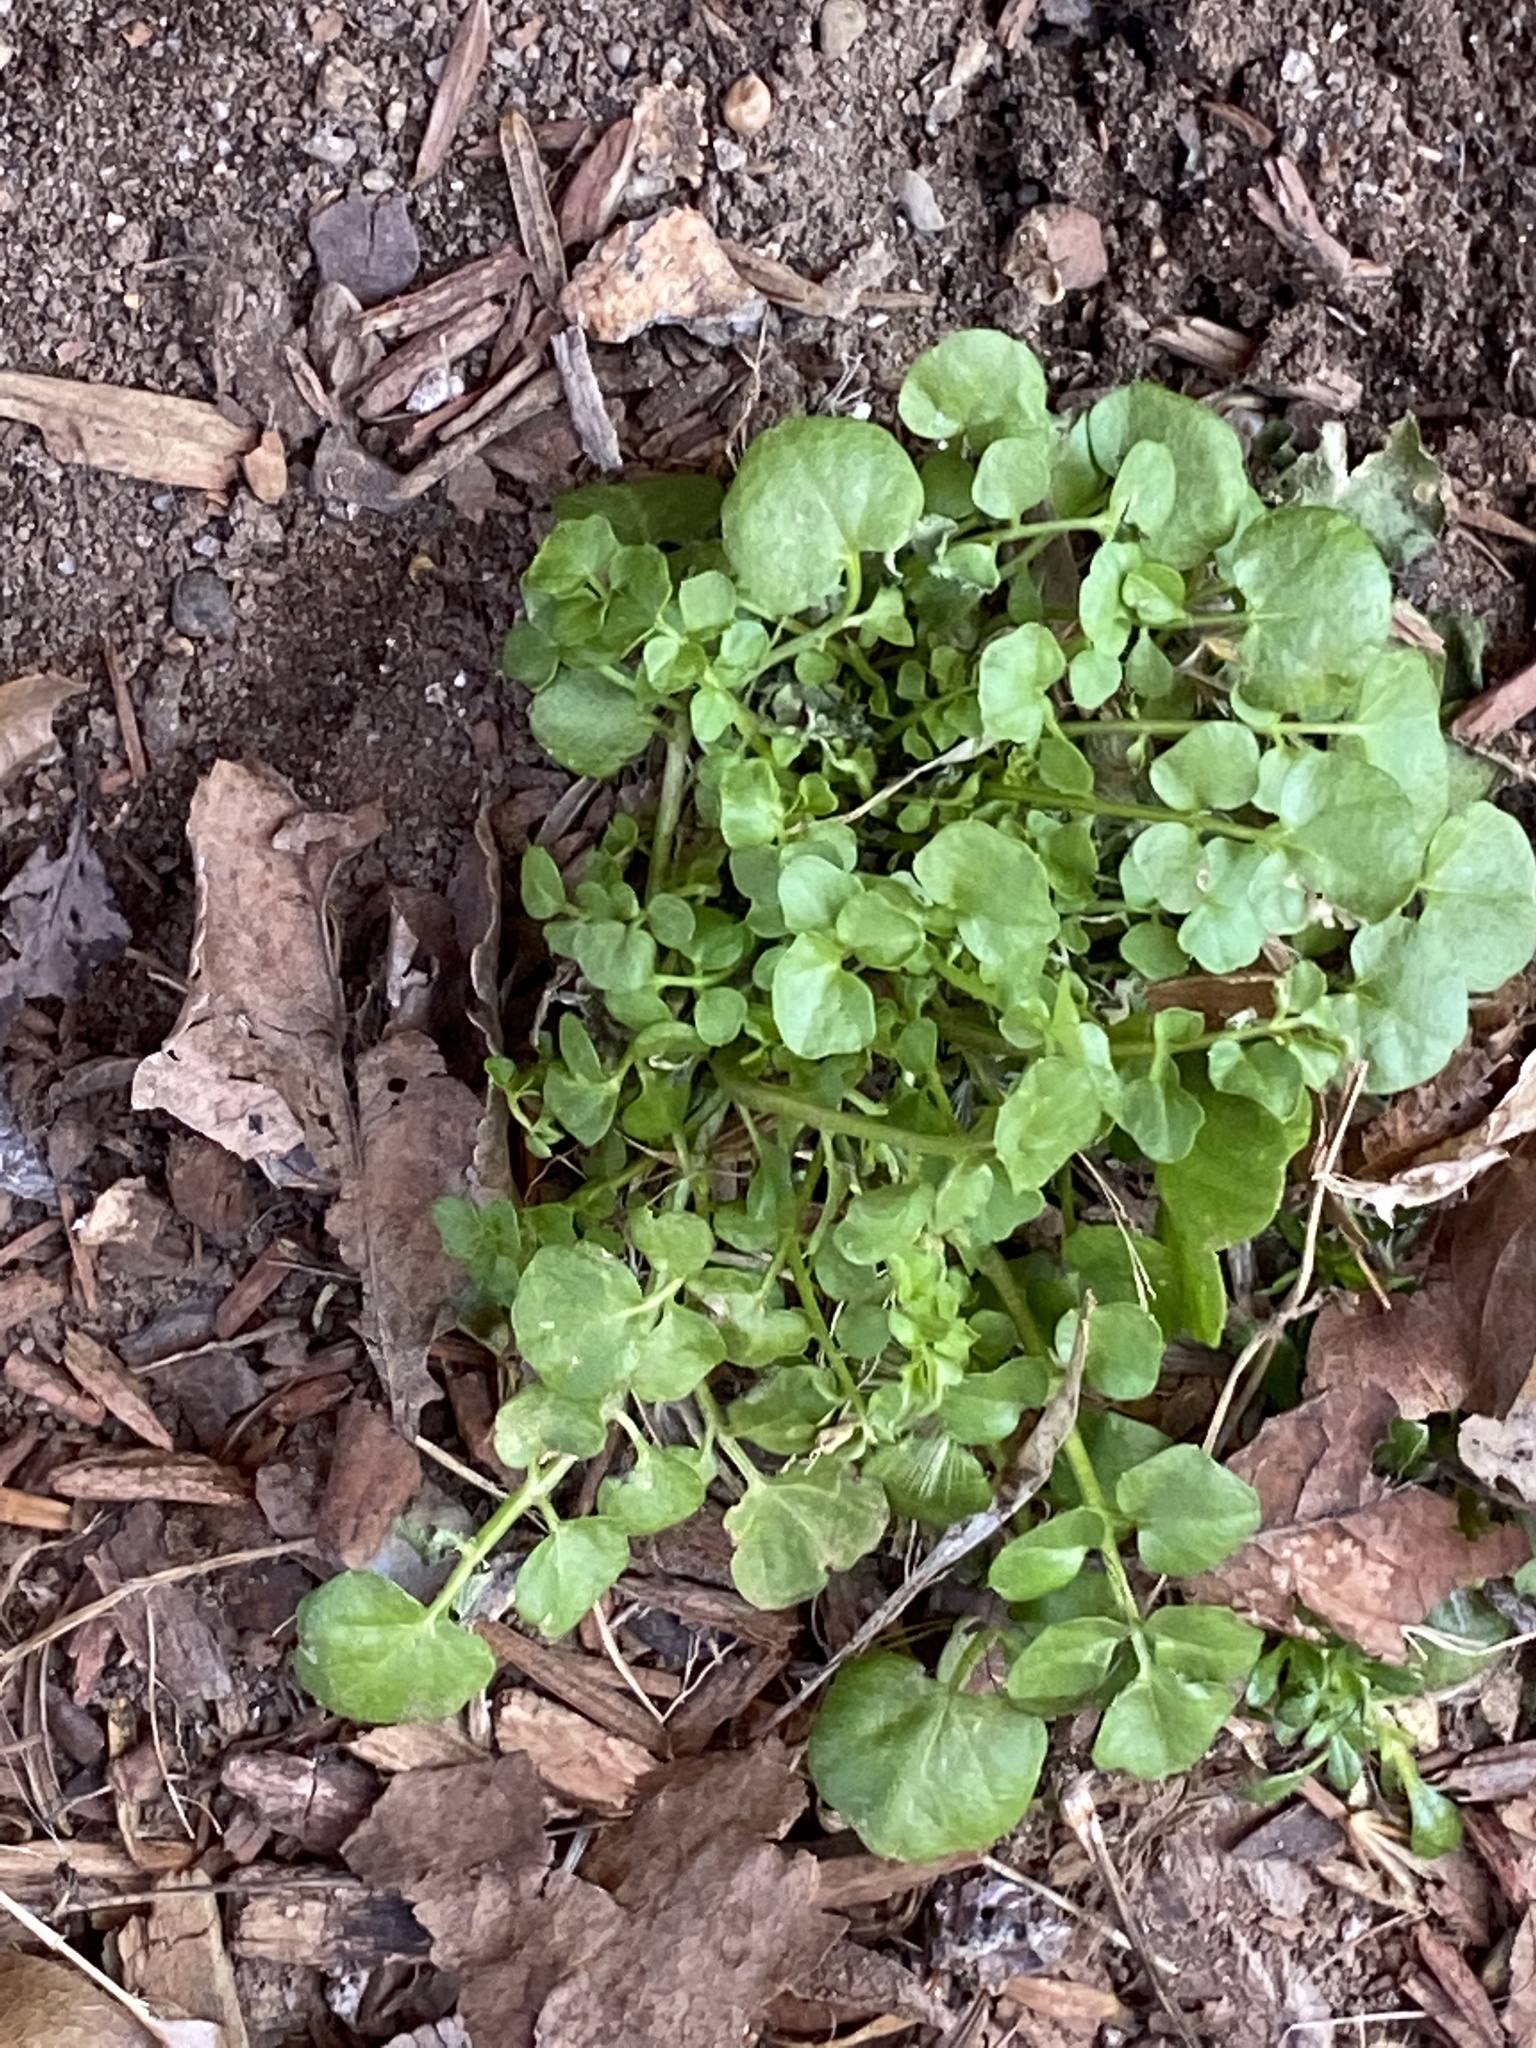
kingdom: Plantae
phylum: Tracheophyta
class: Magnoliopsida
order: Brassicales
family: Brassicaceae
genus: Cardamine
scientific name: Cardamine hirsuta
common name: Hairy bittercress
